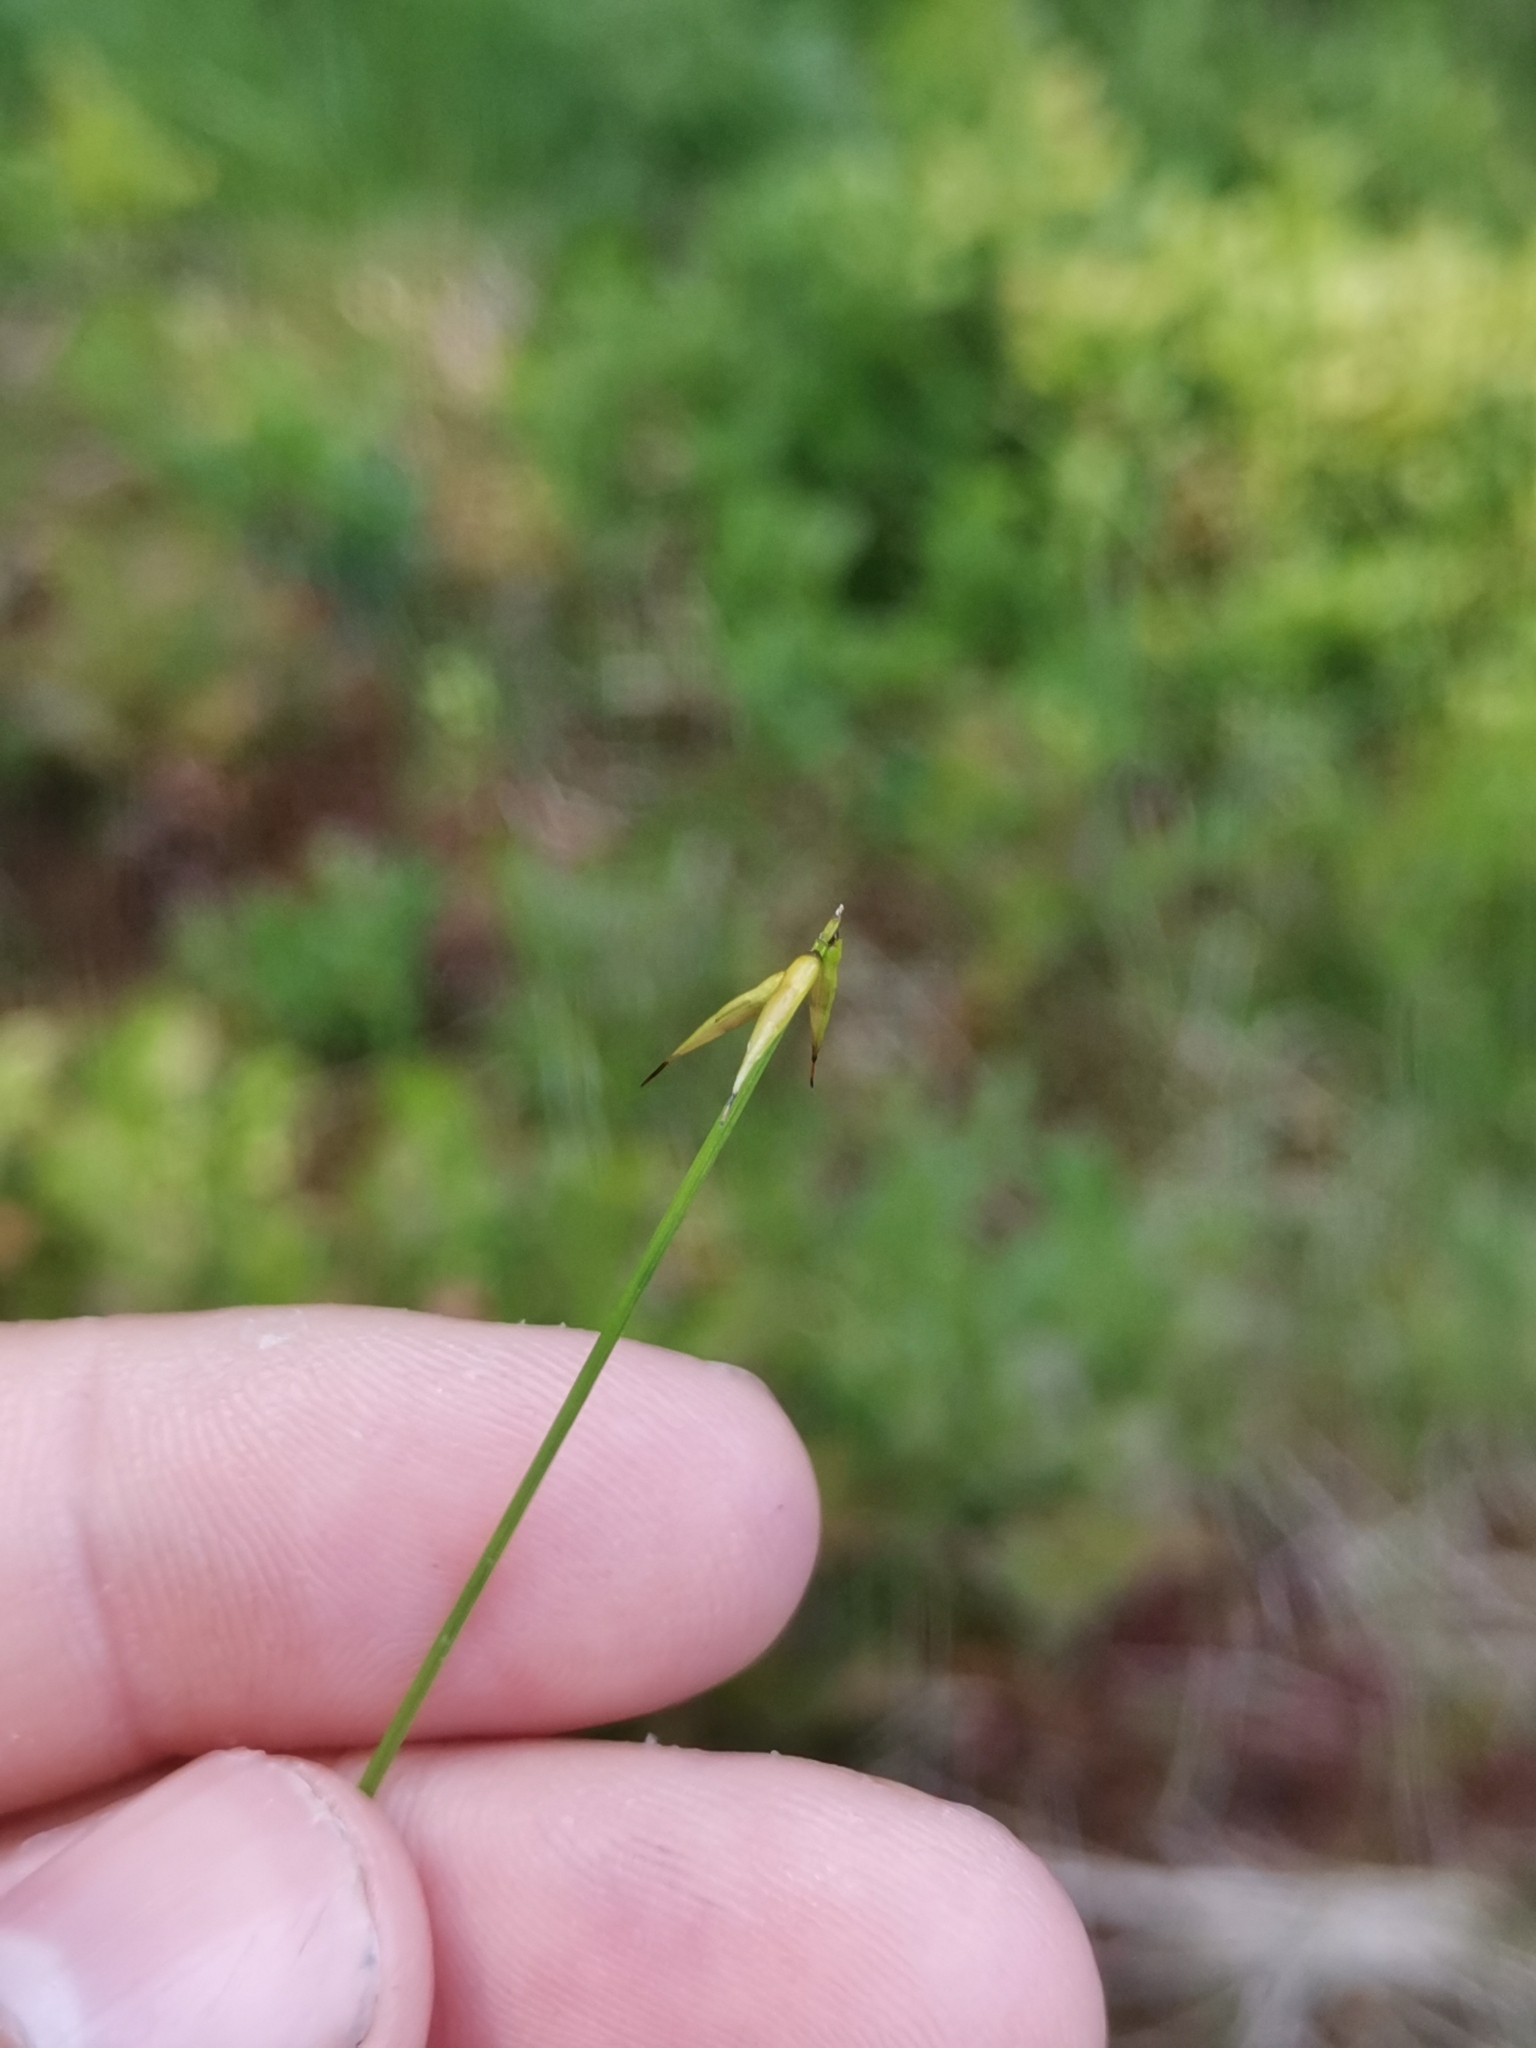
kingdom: Plantae
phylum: Tracheophyta
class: Liliopsida
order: Poales
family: Cyperaceae
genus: Carex
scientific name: Carex pauciflora
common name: Few-flowered sedge
